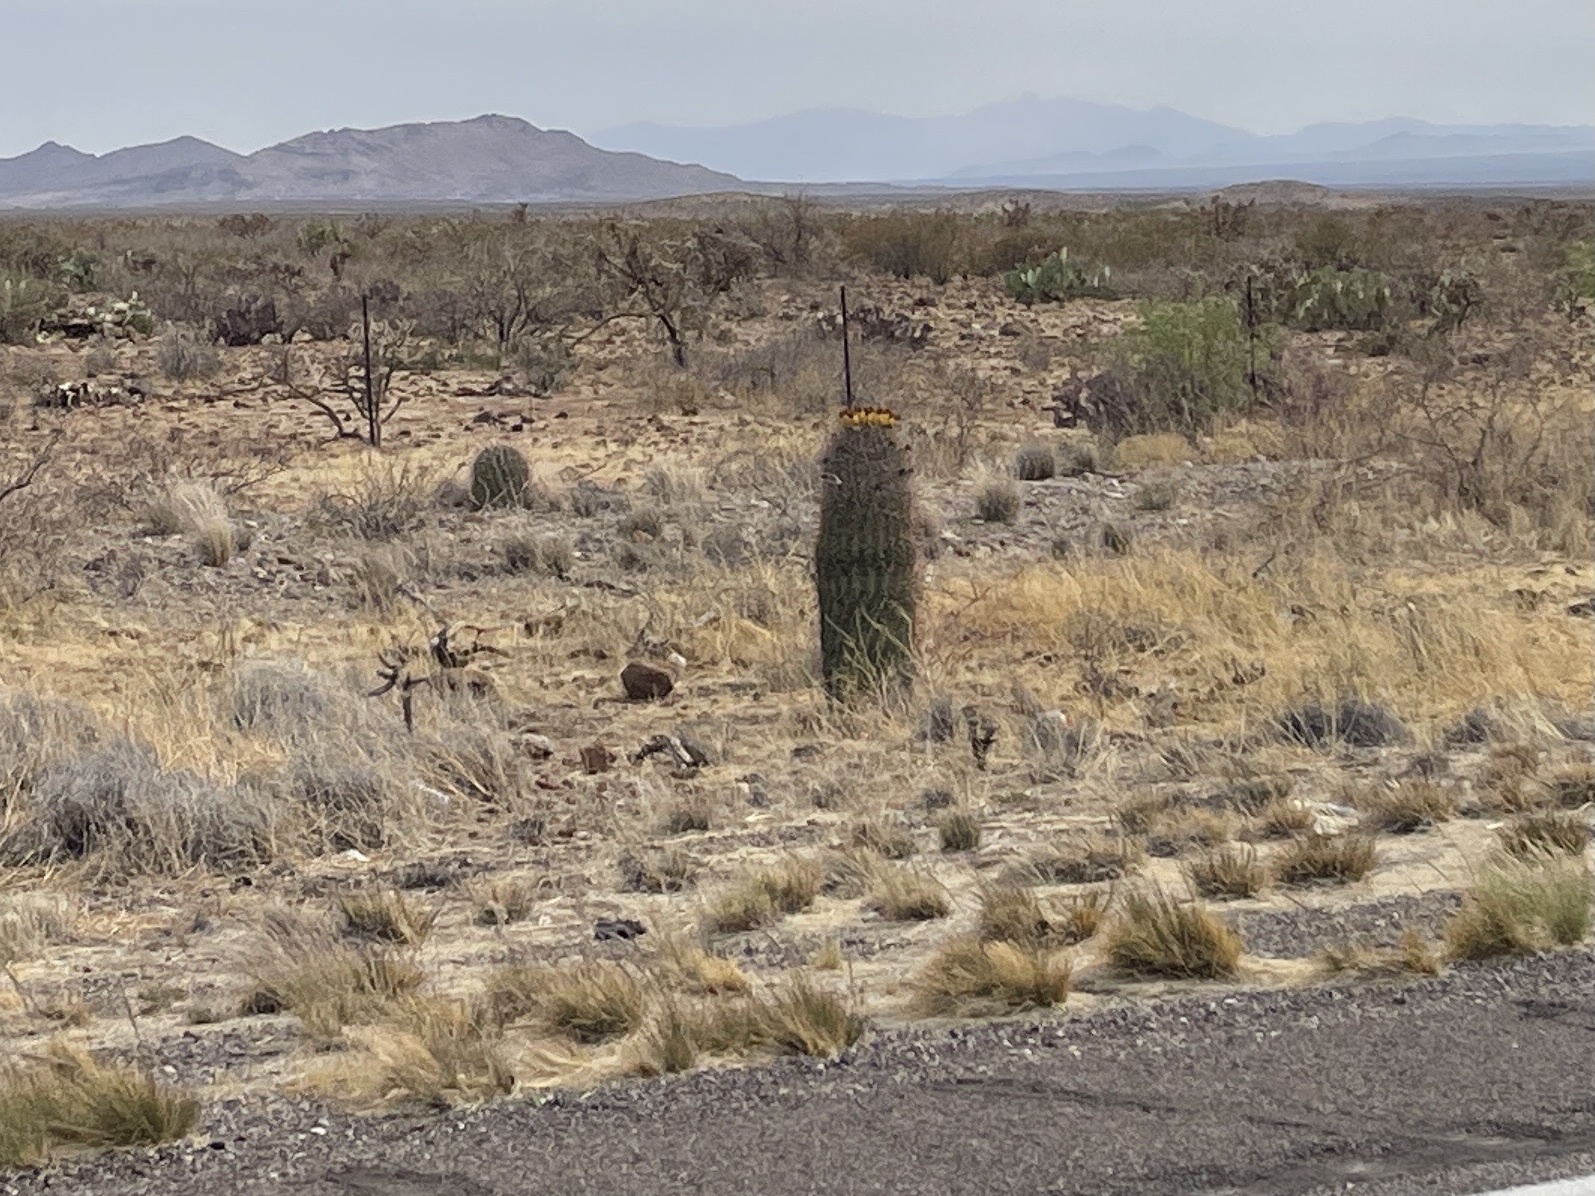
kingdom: Plantae
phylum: Tracheophyta
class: Magnoliopsida
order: Caryophyllales
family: Cactaceae
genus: Ferocactus
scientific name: Ferocactus wislizeni
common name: Candy barrel cactus
